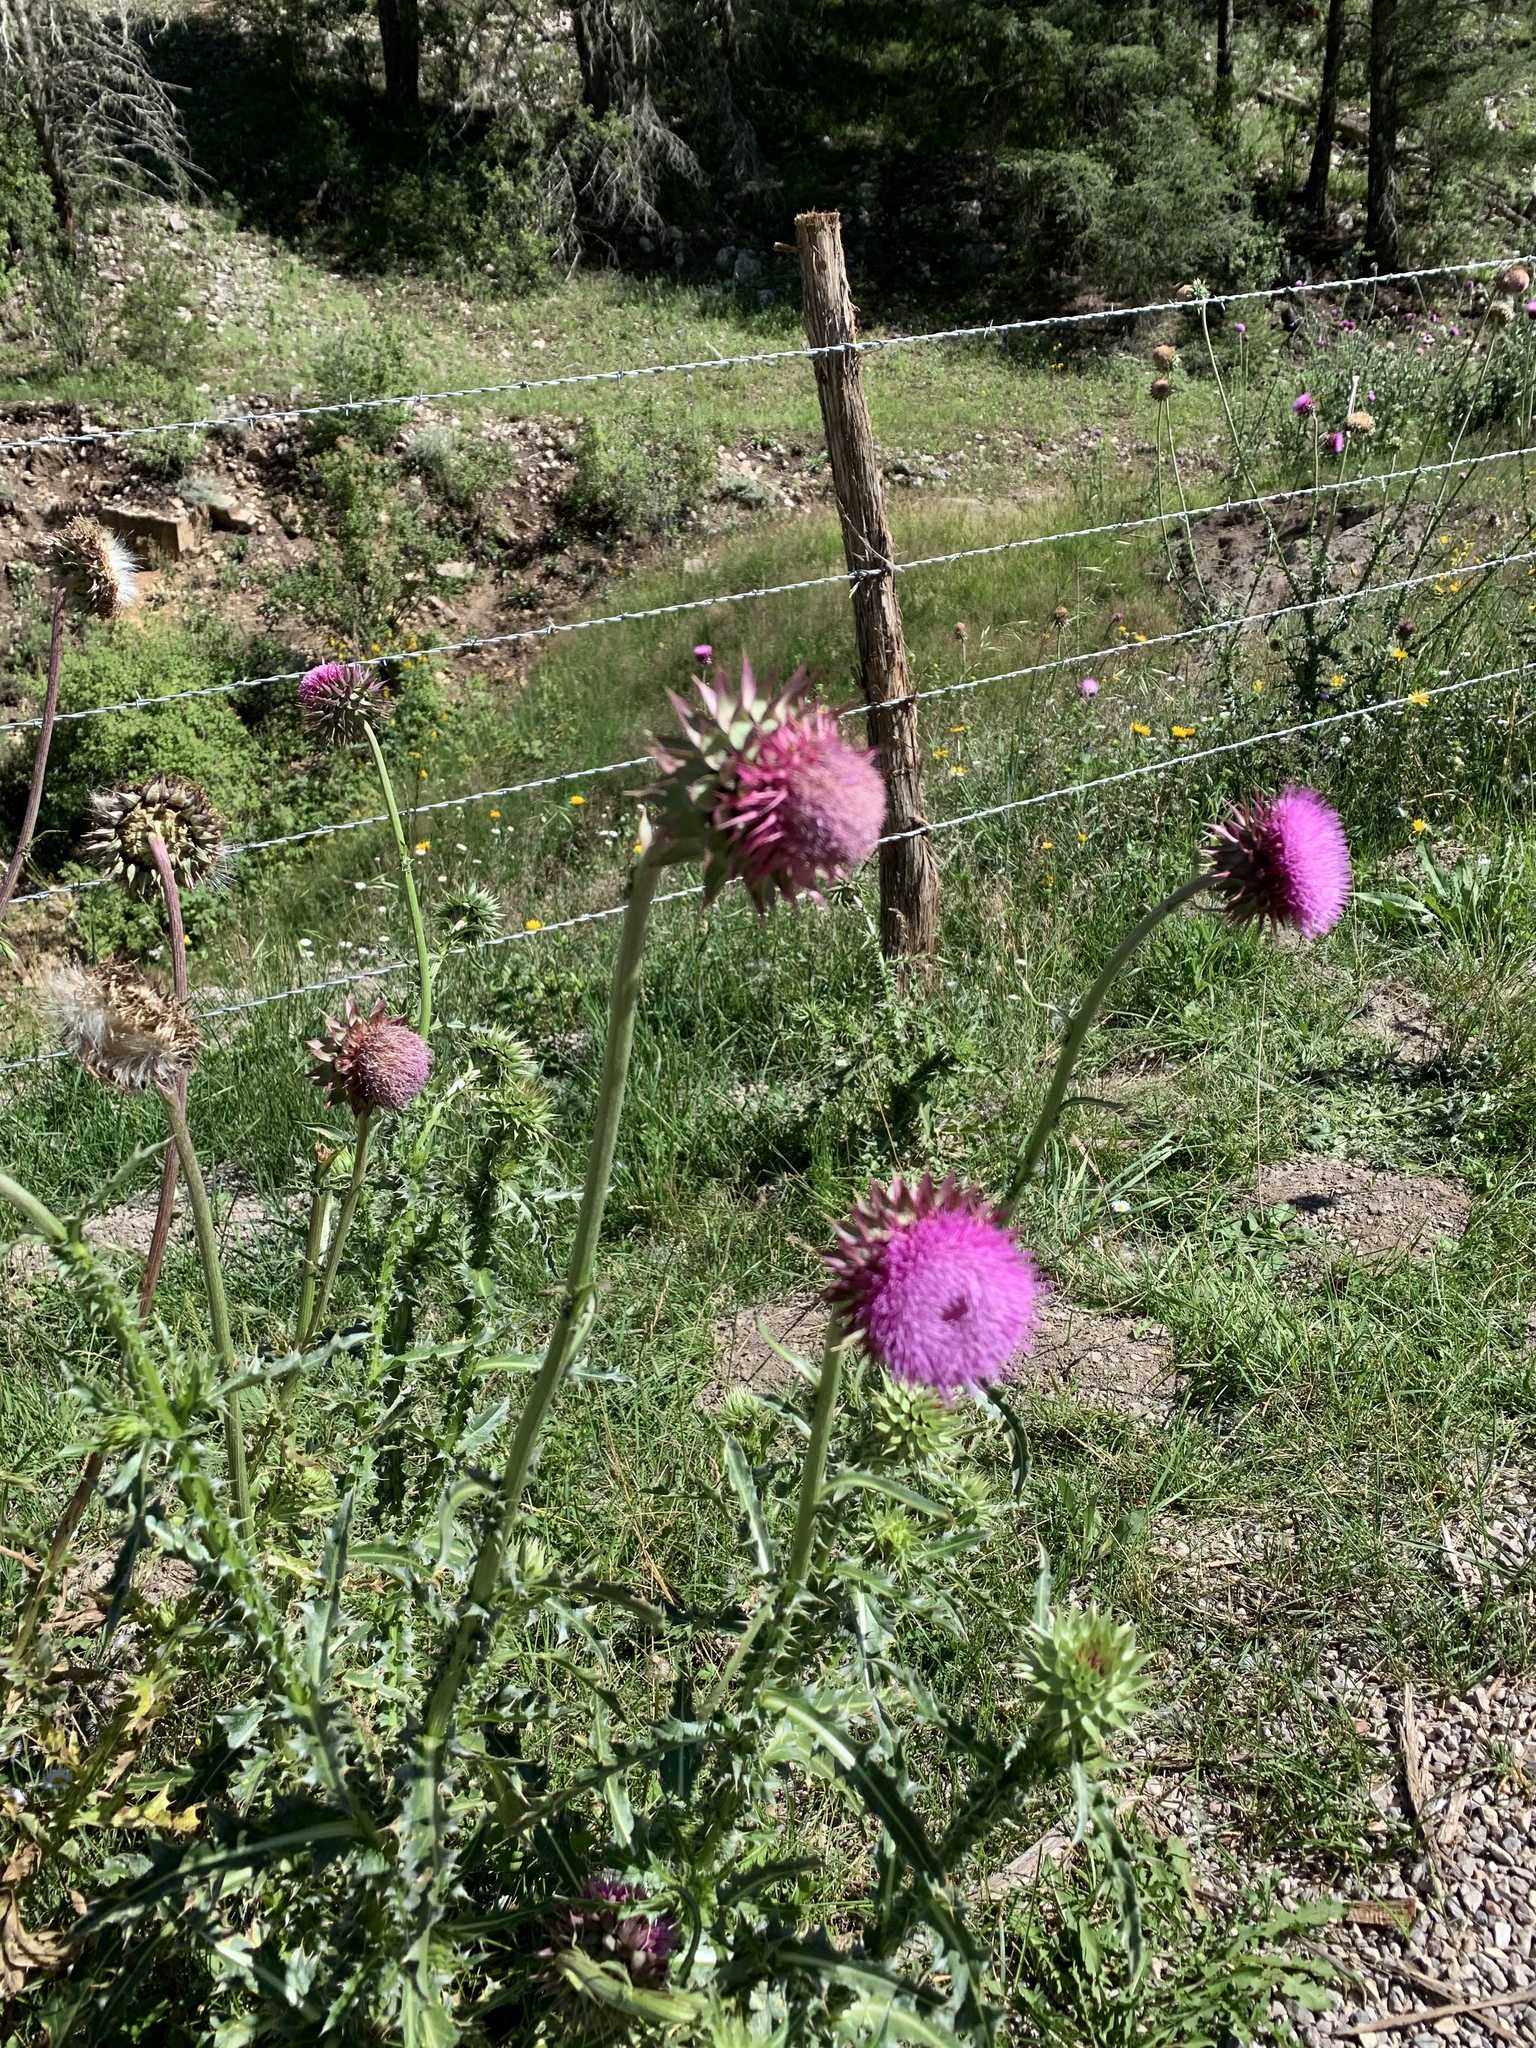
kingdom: Plantae
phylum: Tracheophyta
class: Magnoliopsida
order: Asterales
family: Asteraceae
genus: Carduus
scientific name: Carduus nutans
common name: Musk thistle
